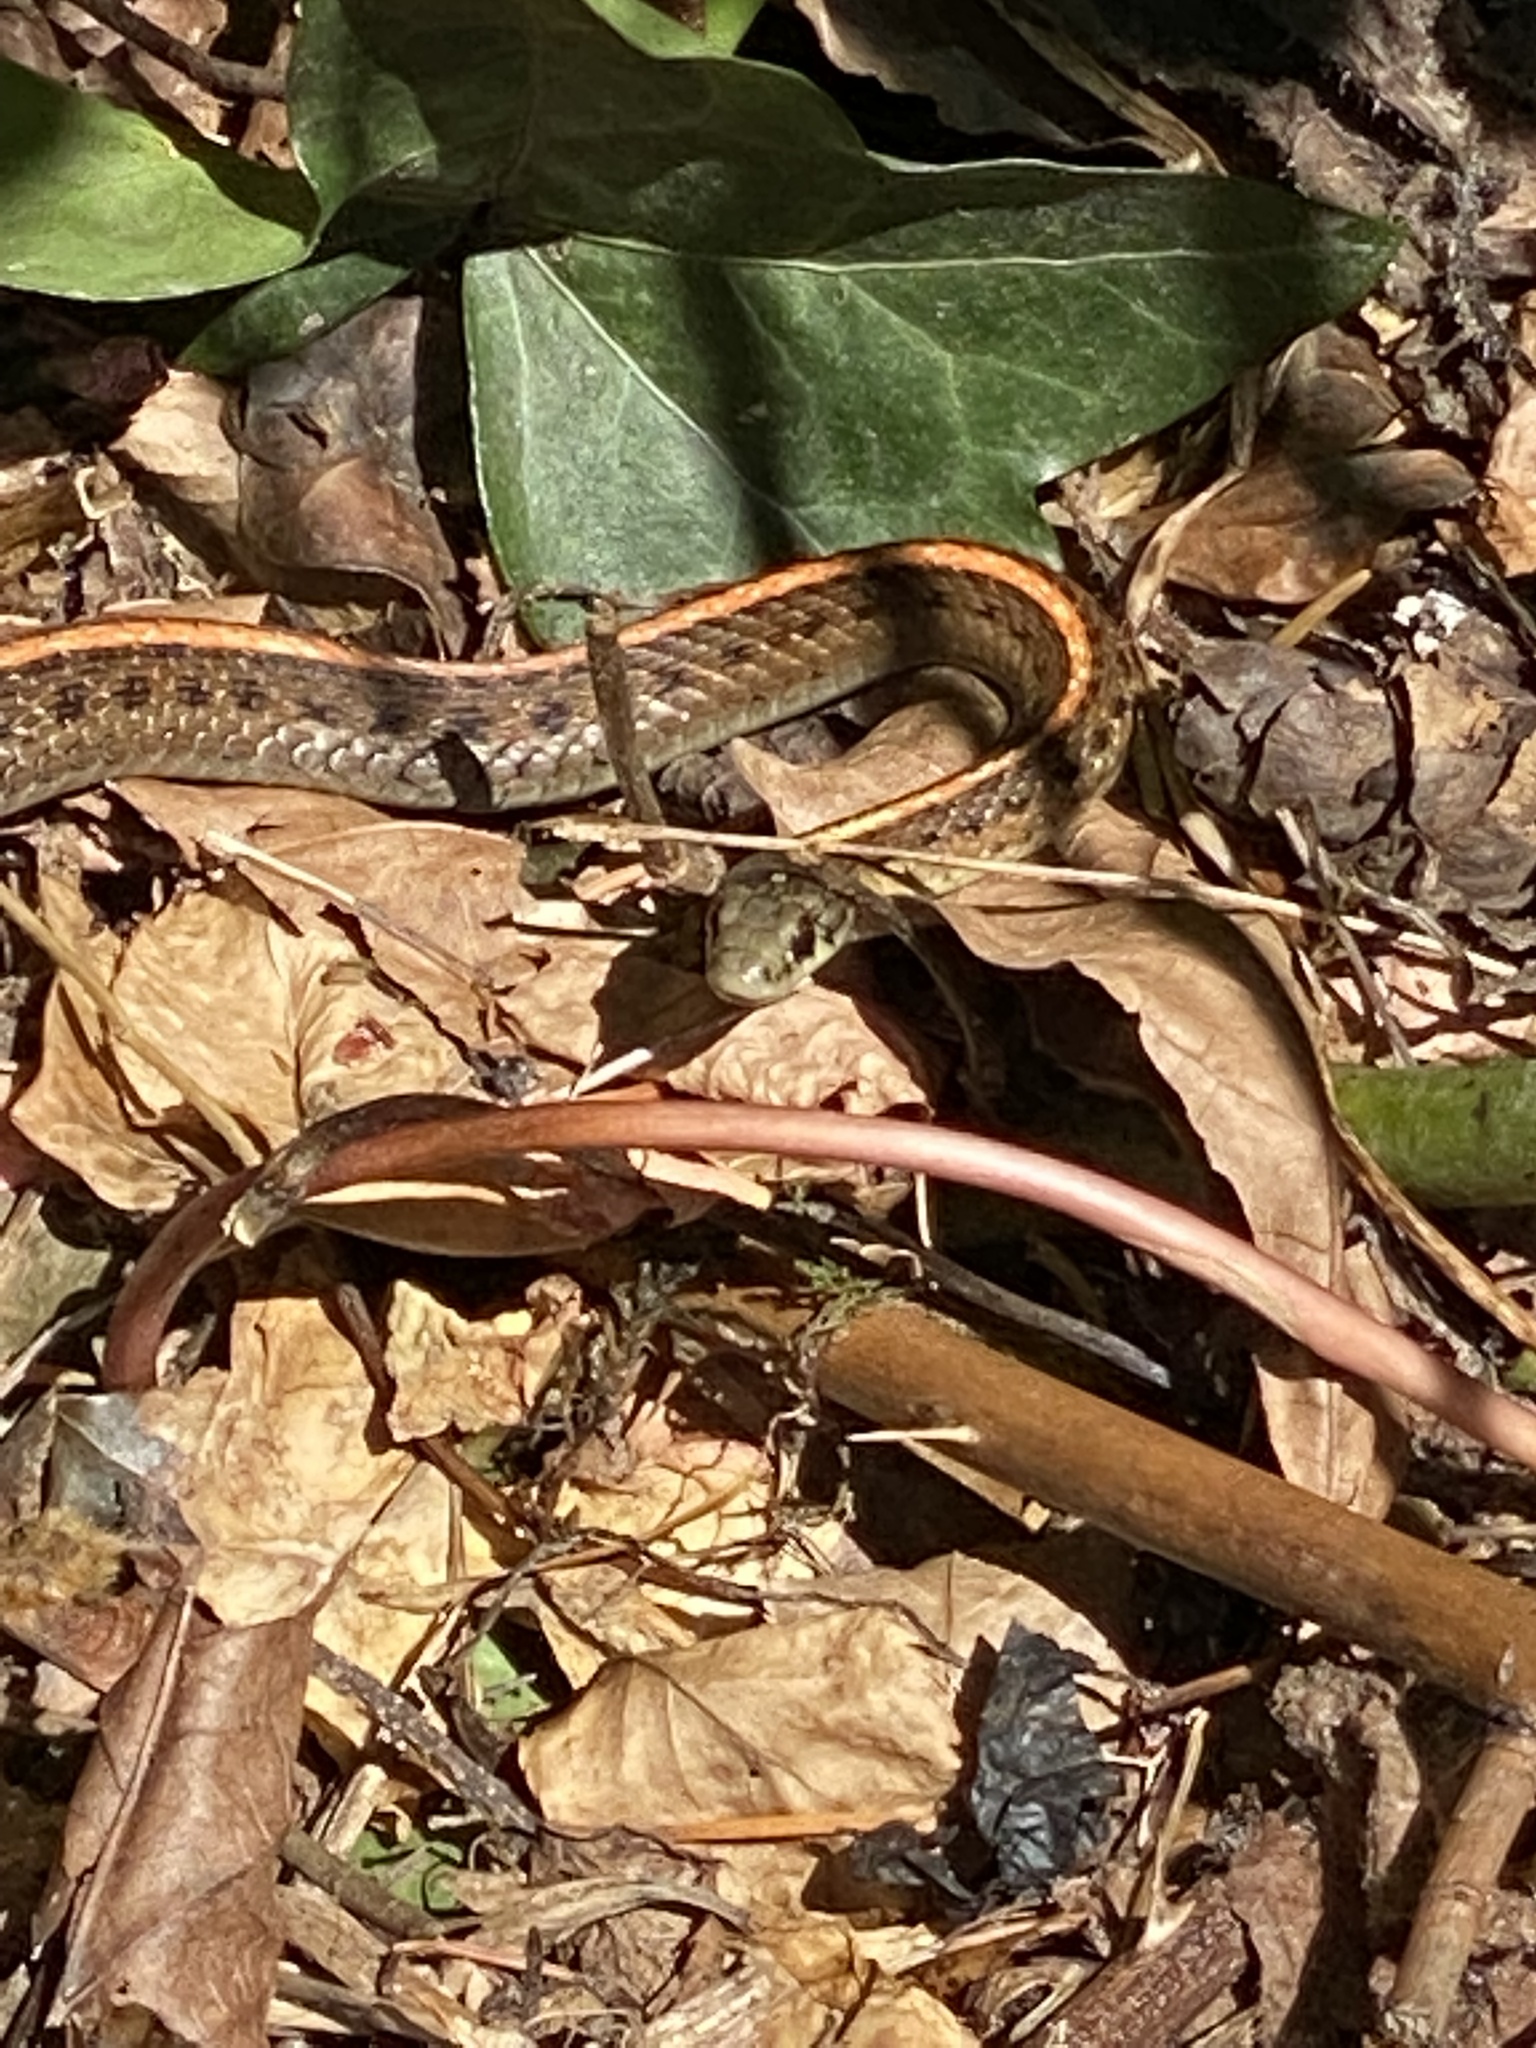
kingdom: Animalia
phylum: Chordata
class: Squamata
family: Colubridae
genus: Thamnophis
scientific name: Thamnophis ordinoides
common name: Northwestern garter snake
